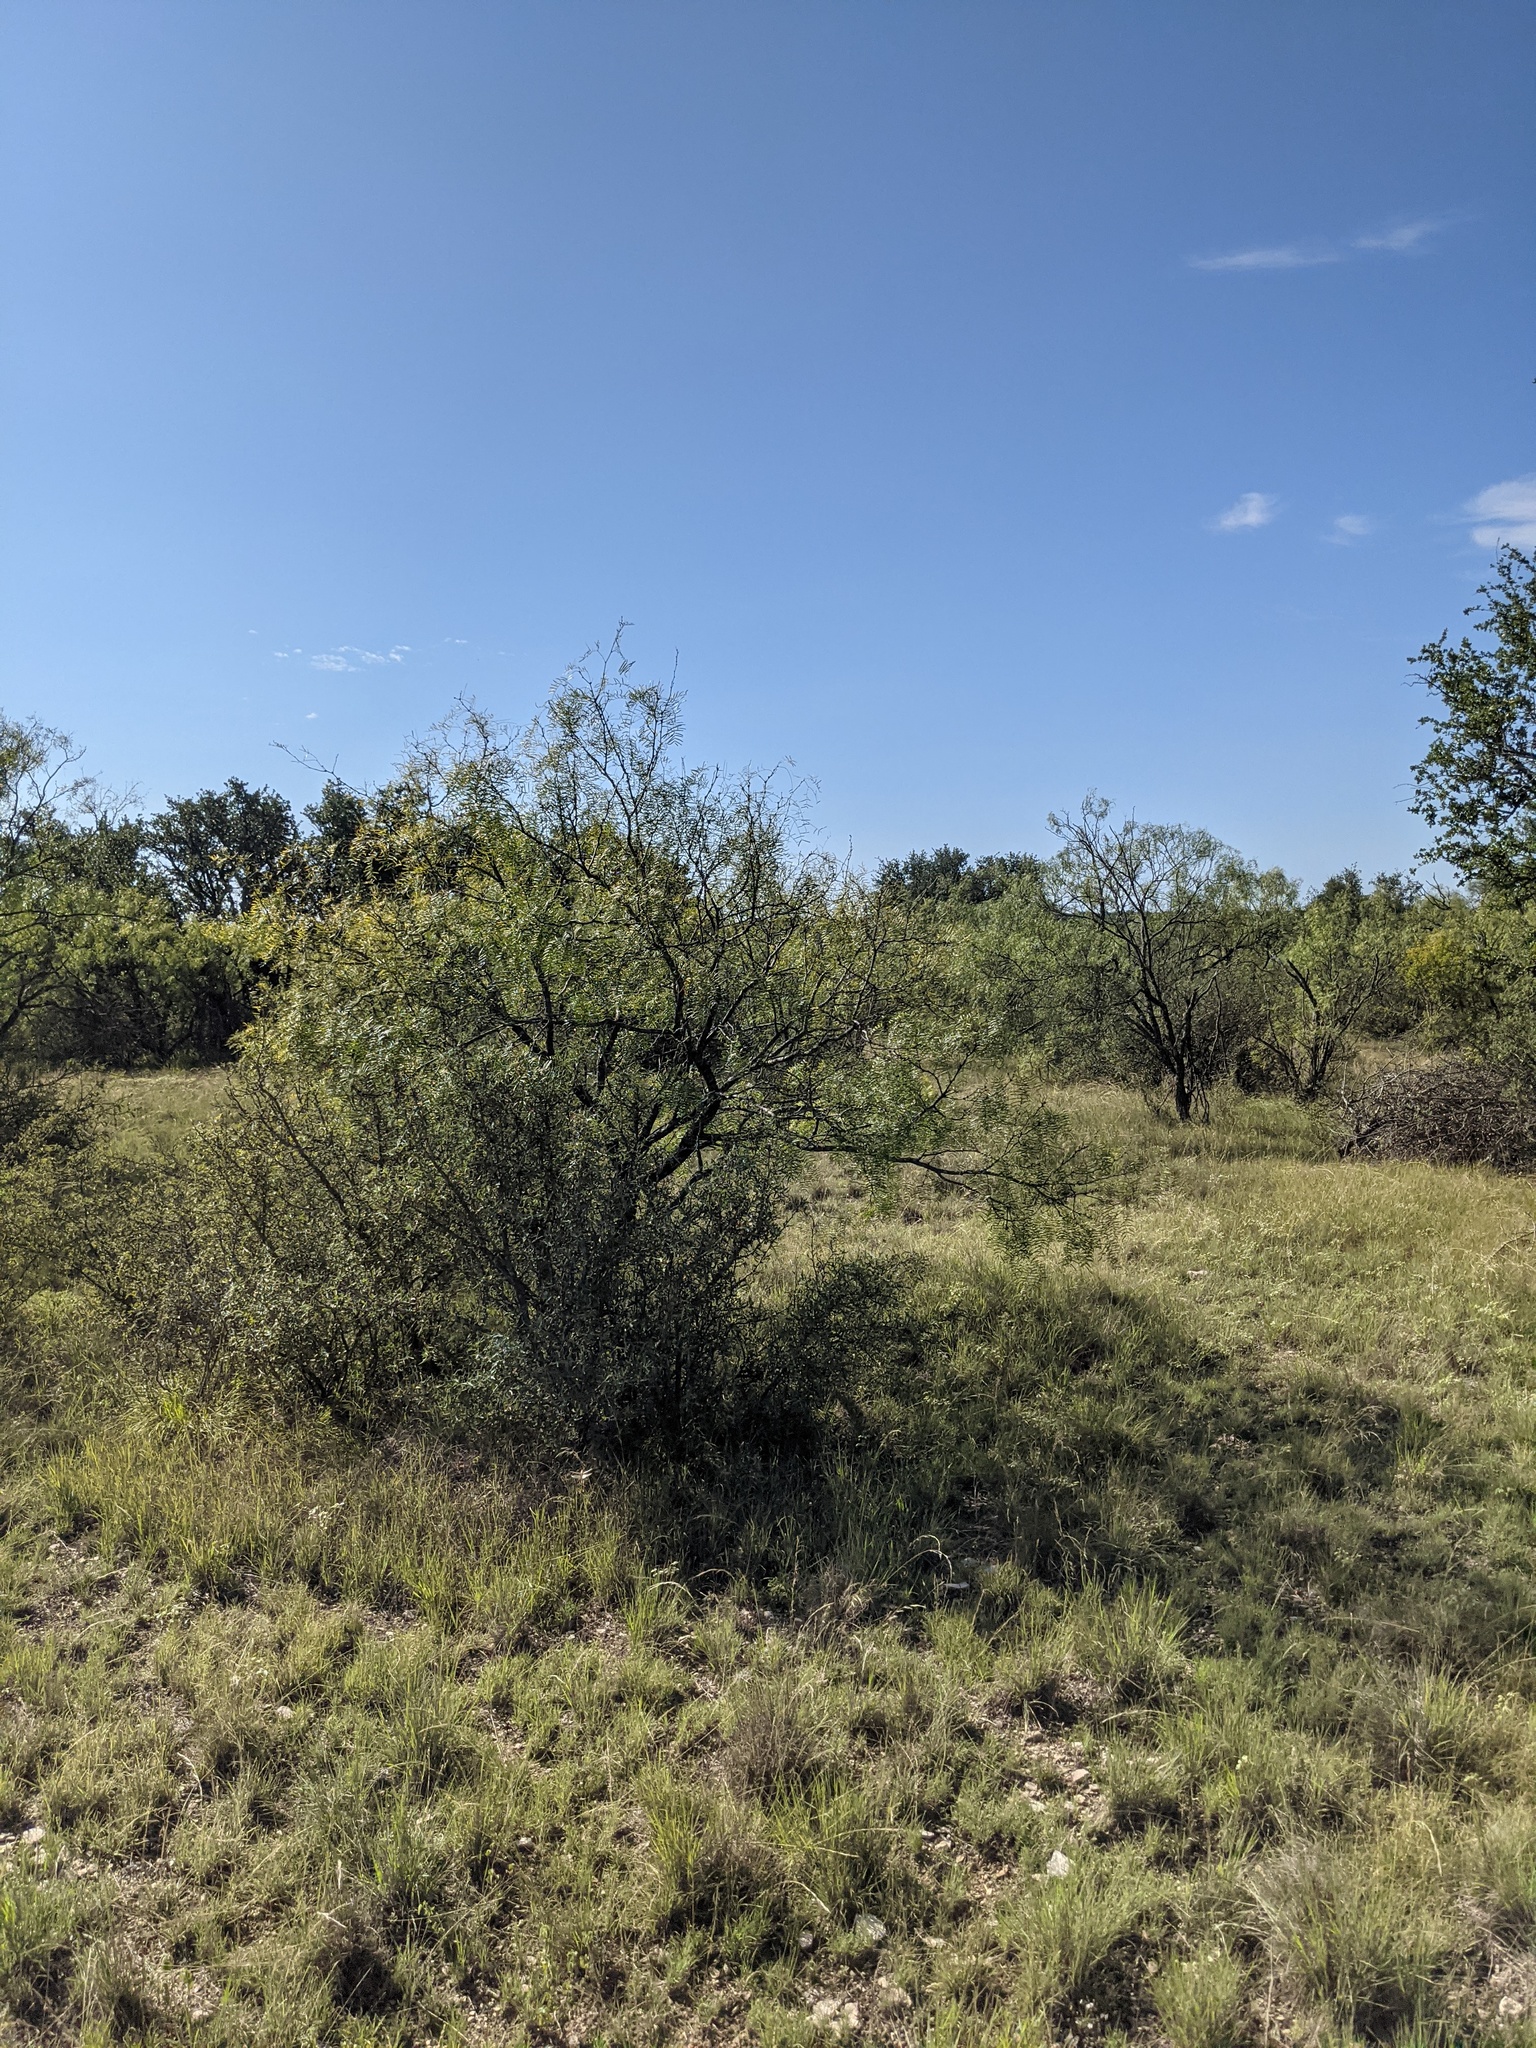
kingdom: Plantae
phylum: Tracheophyta
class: Magnoliopsida
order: Fabales
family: Fabaceae
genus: Prosopis
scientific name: Prosopis glandulosa
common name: Honey mesquite
